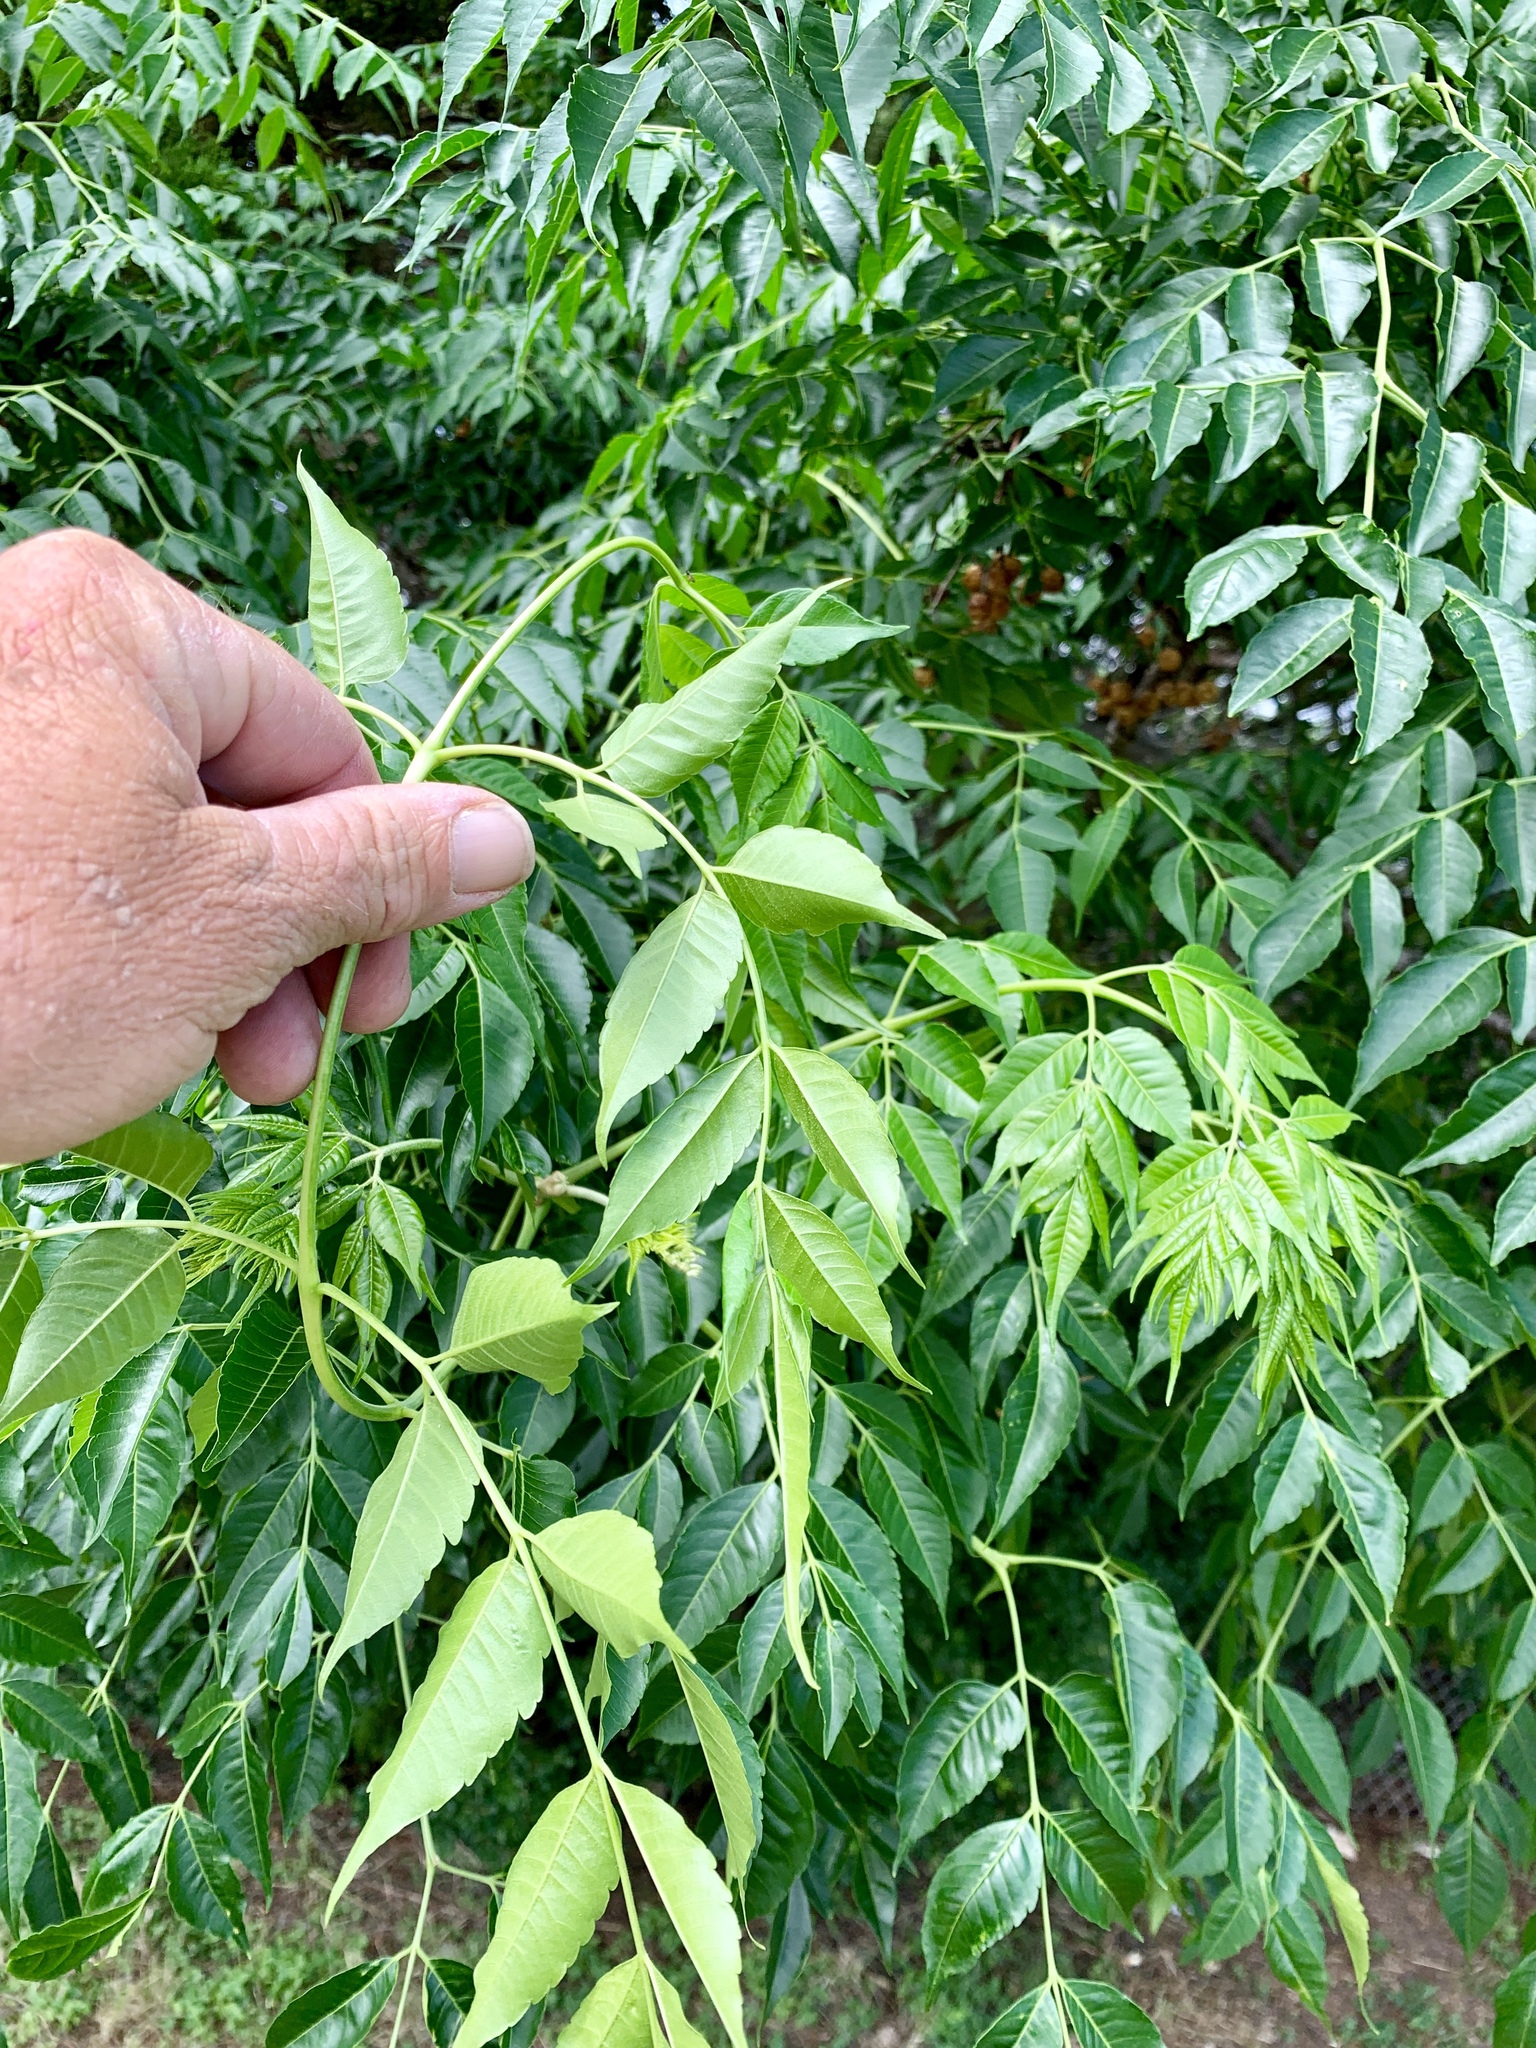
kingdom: Plantae
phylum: Tracheophyta
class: Magnoliopsida
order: Sapindales
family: Meliaceae
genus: Melia
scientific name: Melia azedarach
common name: Chinaberrytree
